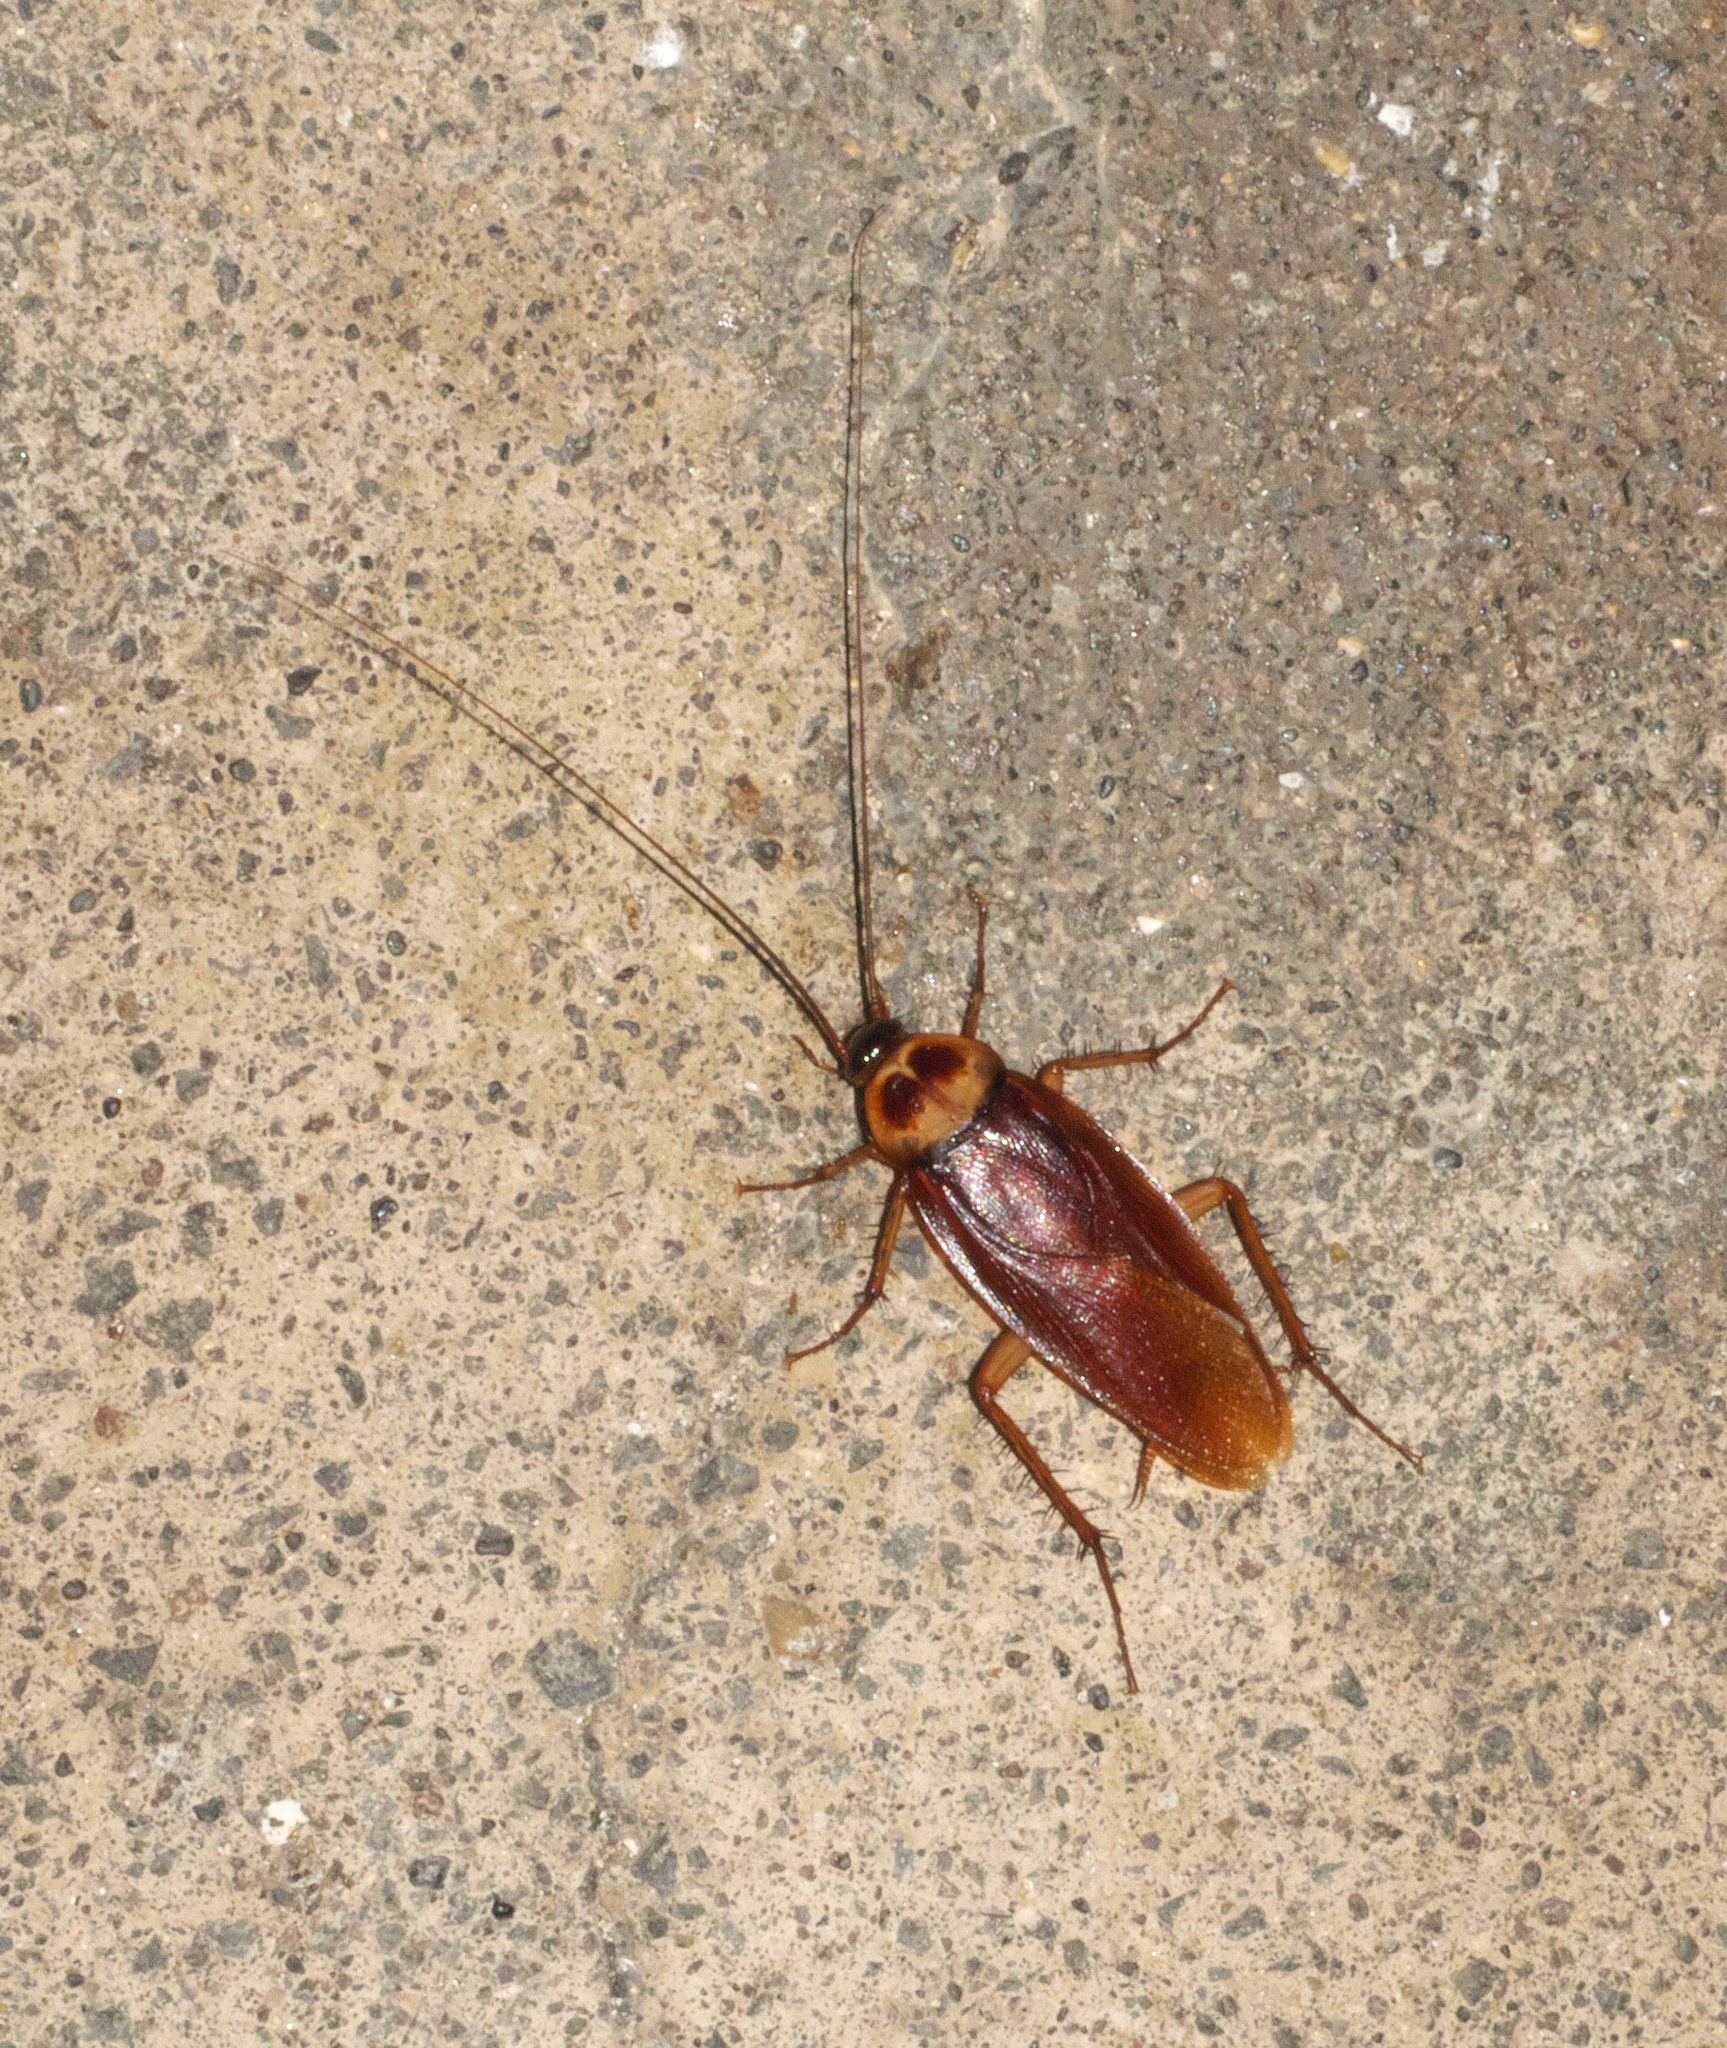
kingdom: Animalia
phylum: Arthropoda
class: Insecta
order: Blattodea
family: Blattidae
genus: Periplaneta
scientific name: Periplaneta americana
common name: American cockroach
